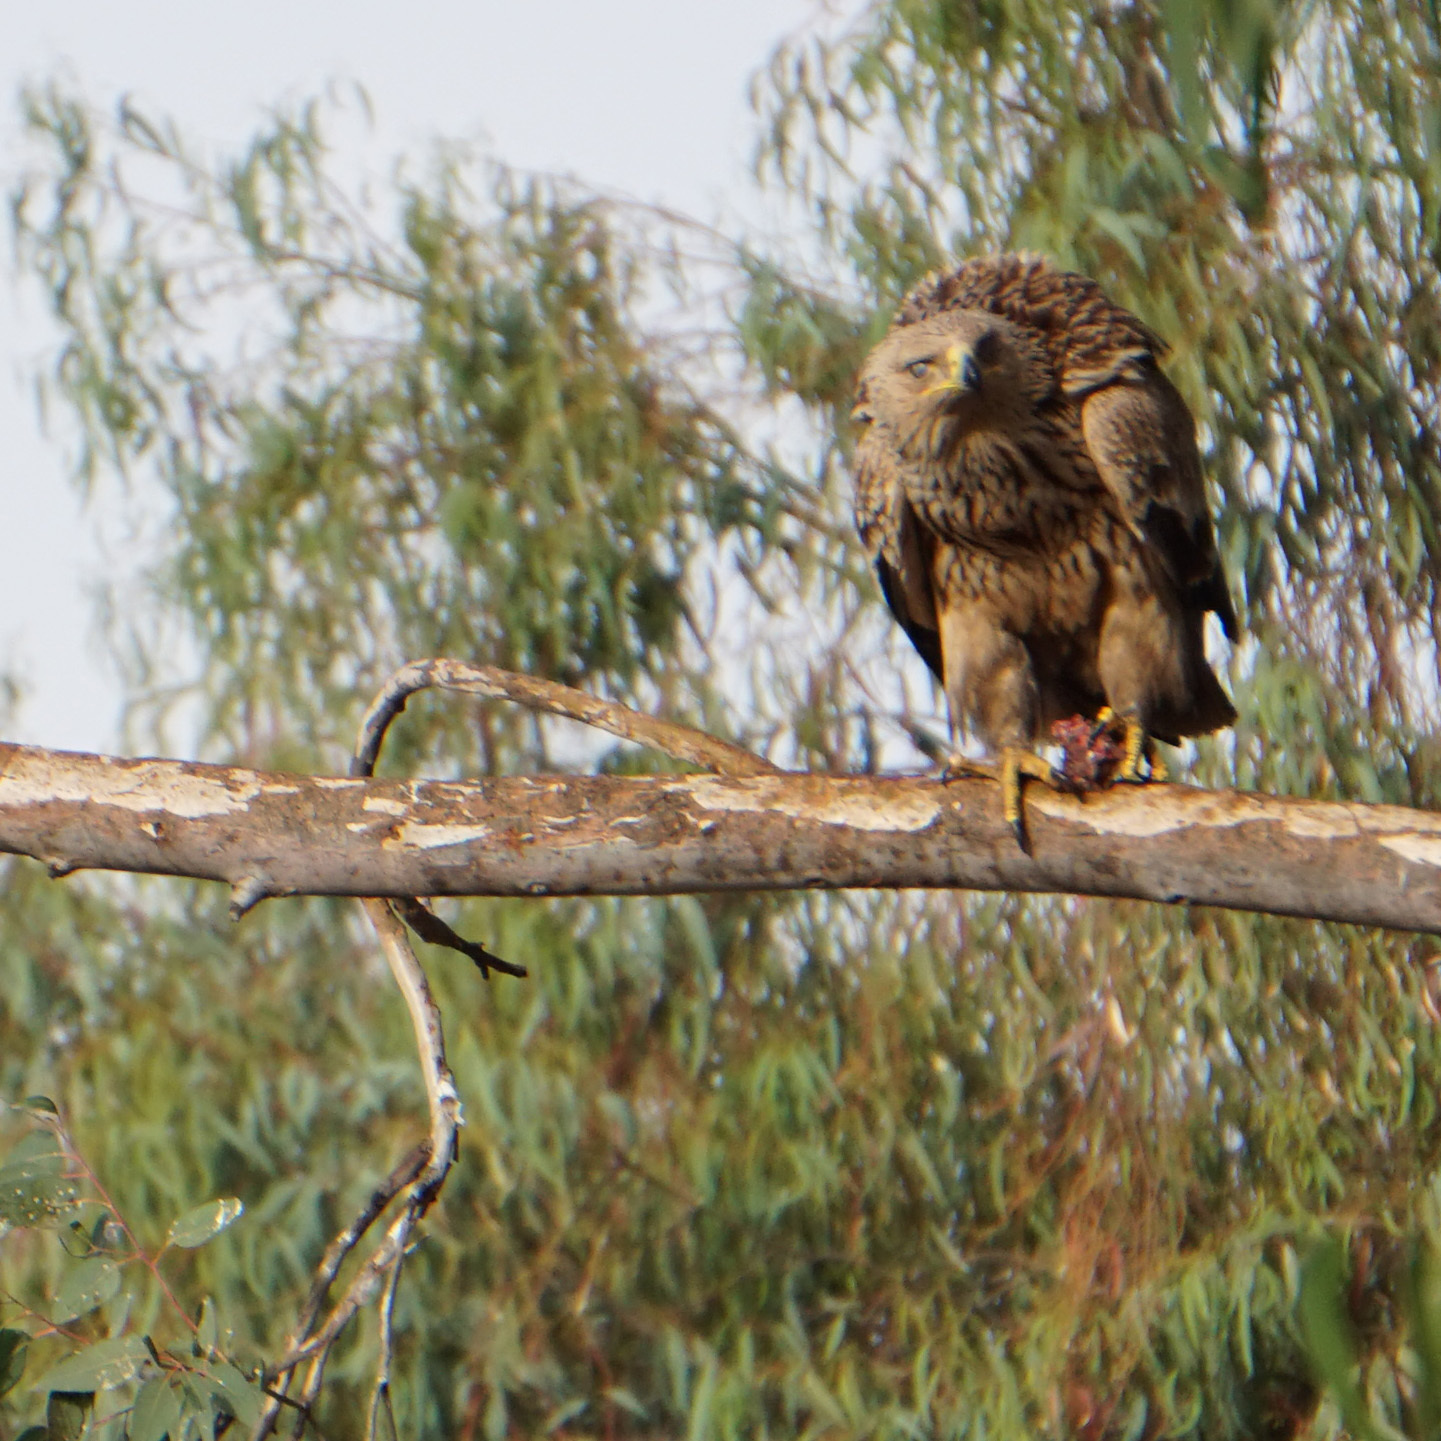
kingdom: Animalia
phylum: Chordata
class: Aves
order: Accipitriformes
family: Accipitridae
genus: Aquila
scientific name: Aquila heliaca
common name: Eastern imperial eagle
